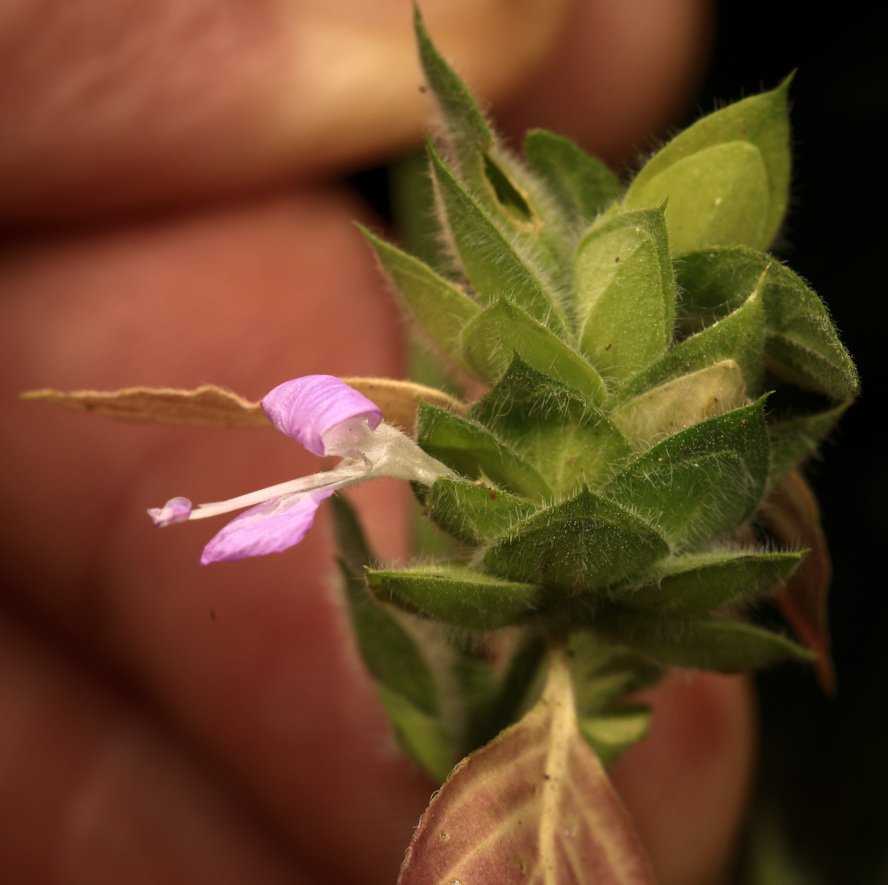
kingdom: Plantae
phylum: Tracheophyta
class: Magnoliopsida
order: Lamiales
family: Acanthaceae
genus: Dicliptera
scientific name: Dicliptera heterostegia
